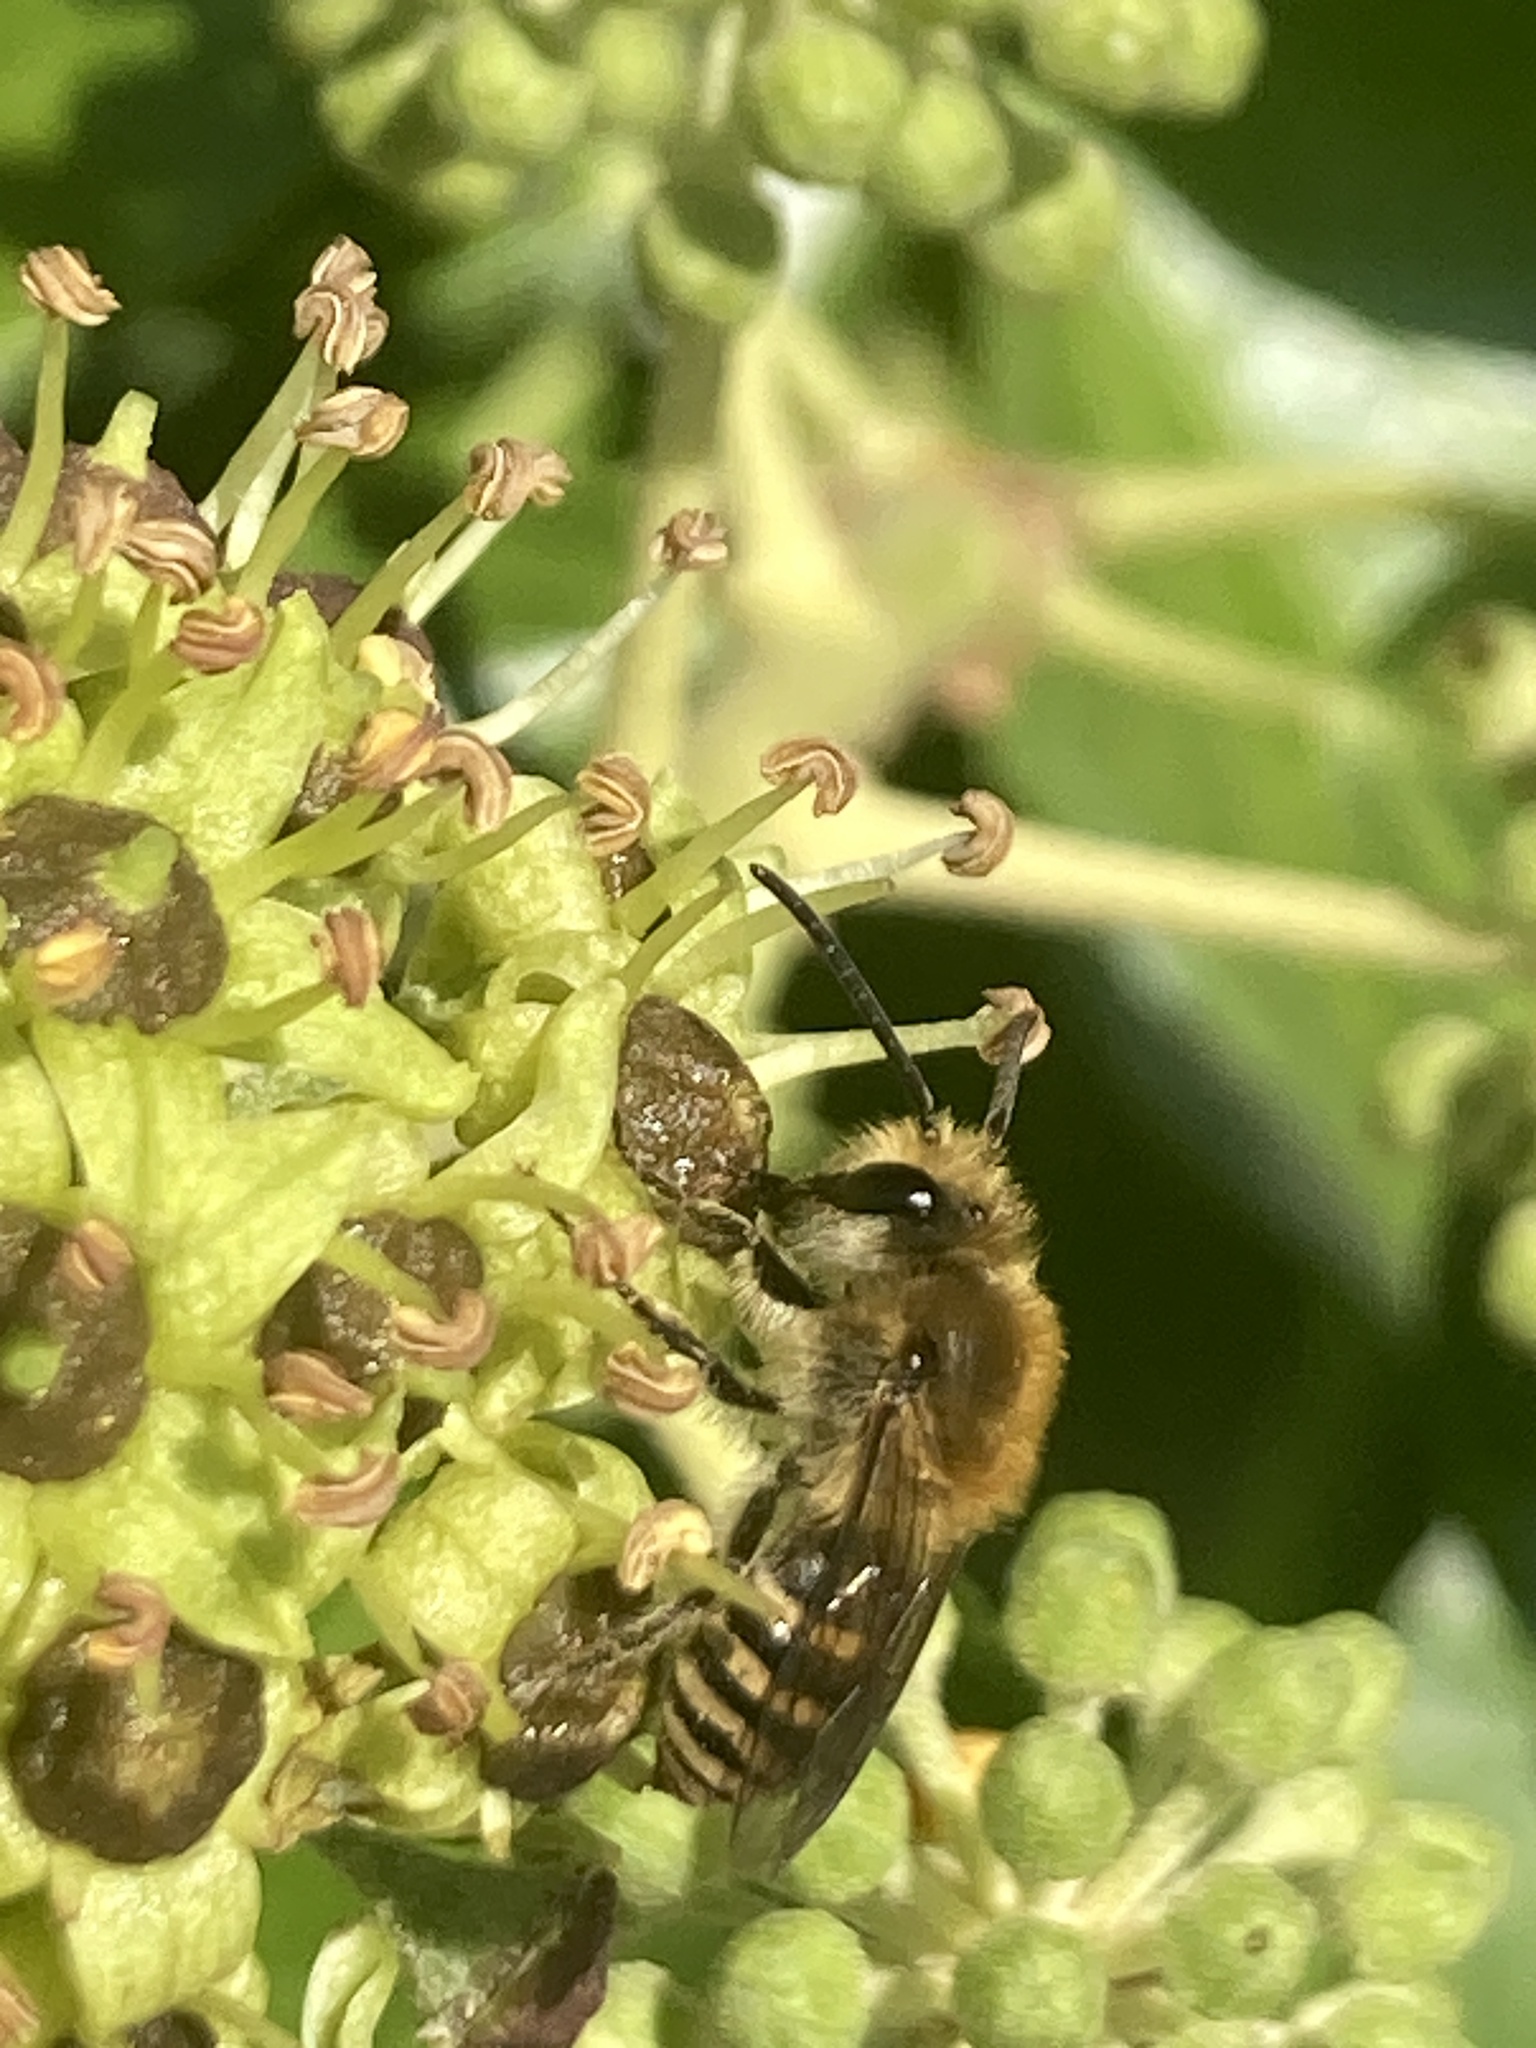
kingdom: Animalia
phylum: Arthropoda
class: Insecta
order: Hymenoptera
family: Colletidae
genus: Colletes
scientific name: Colletes hederae
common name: Ivy bee
